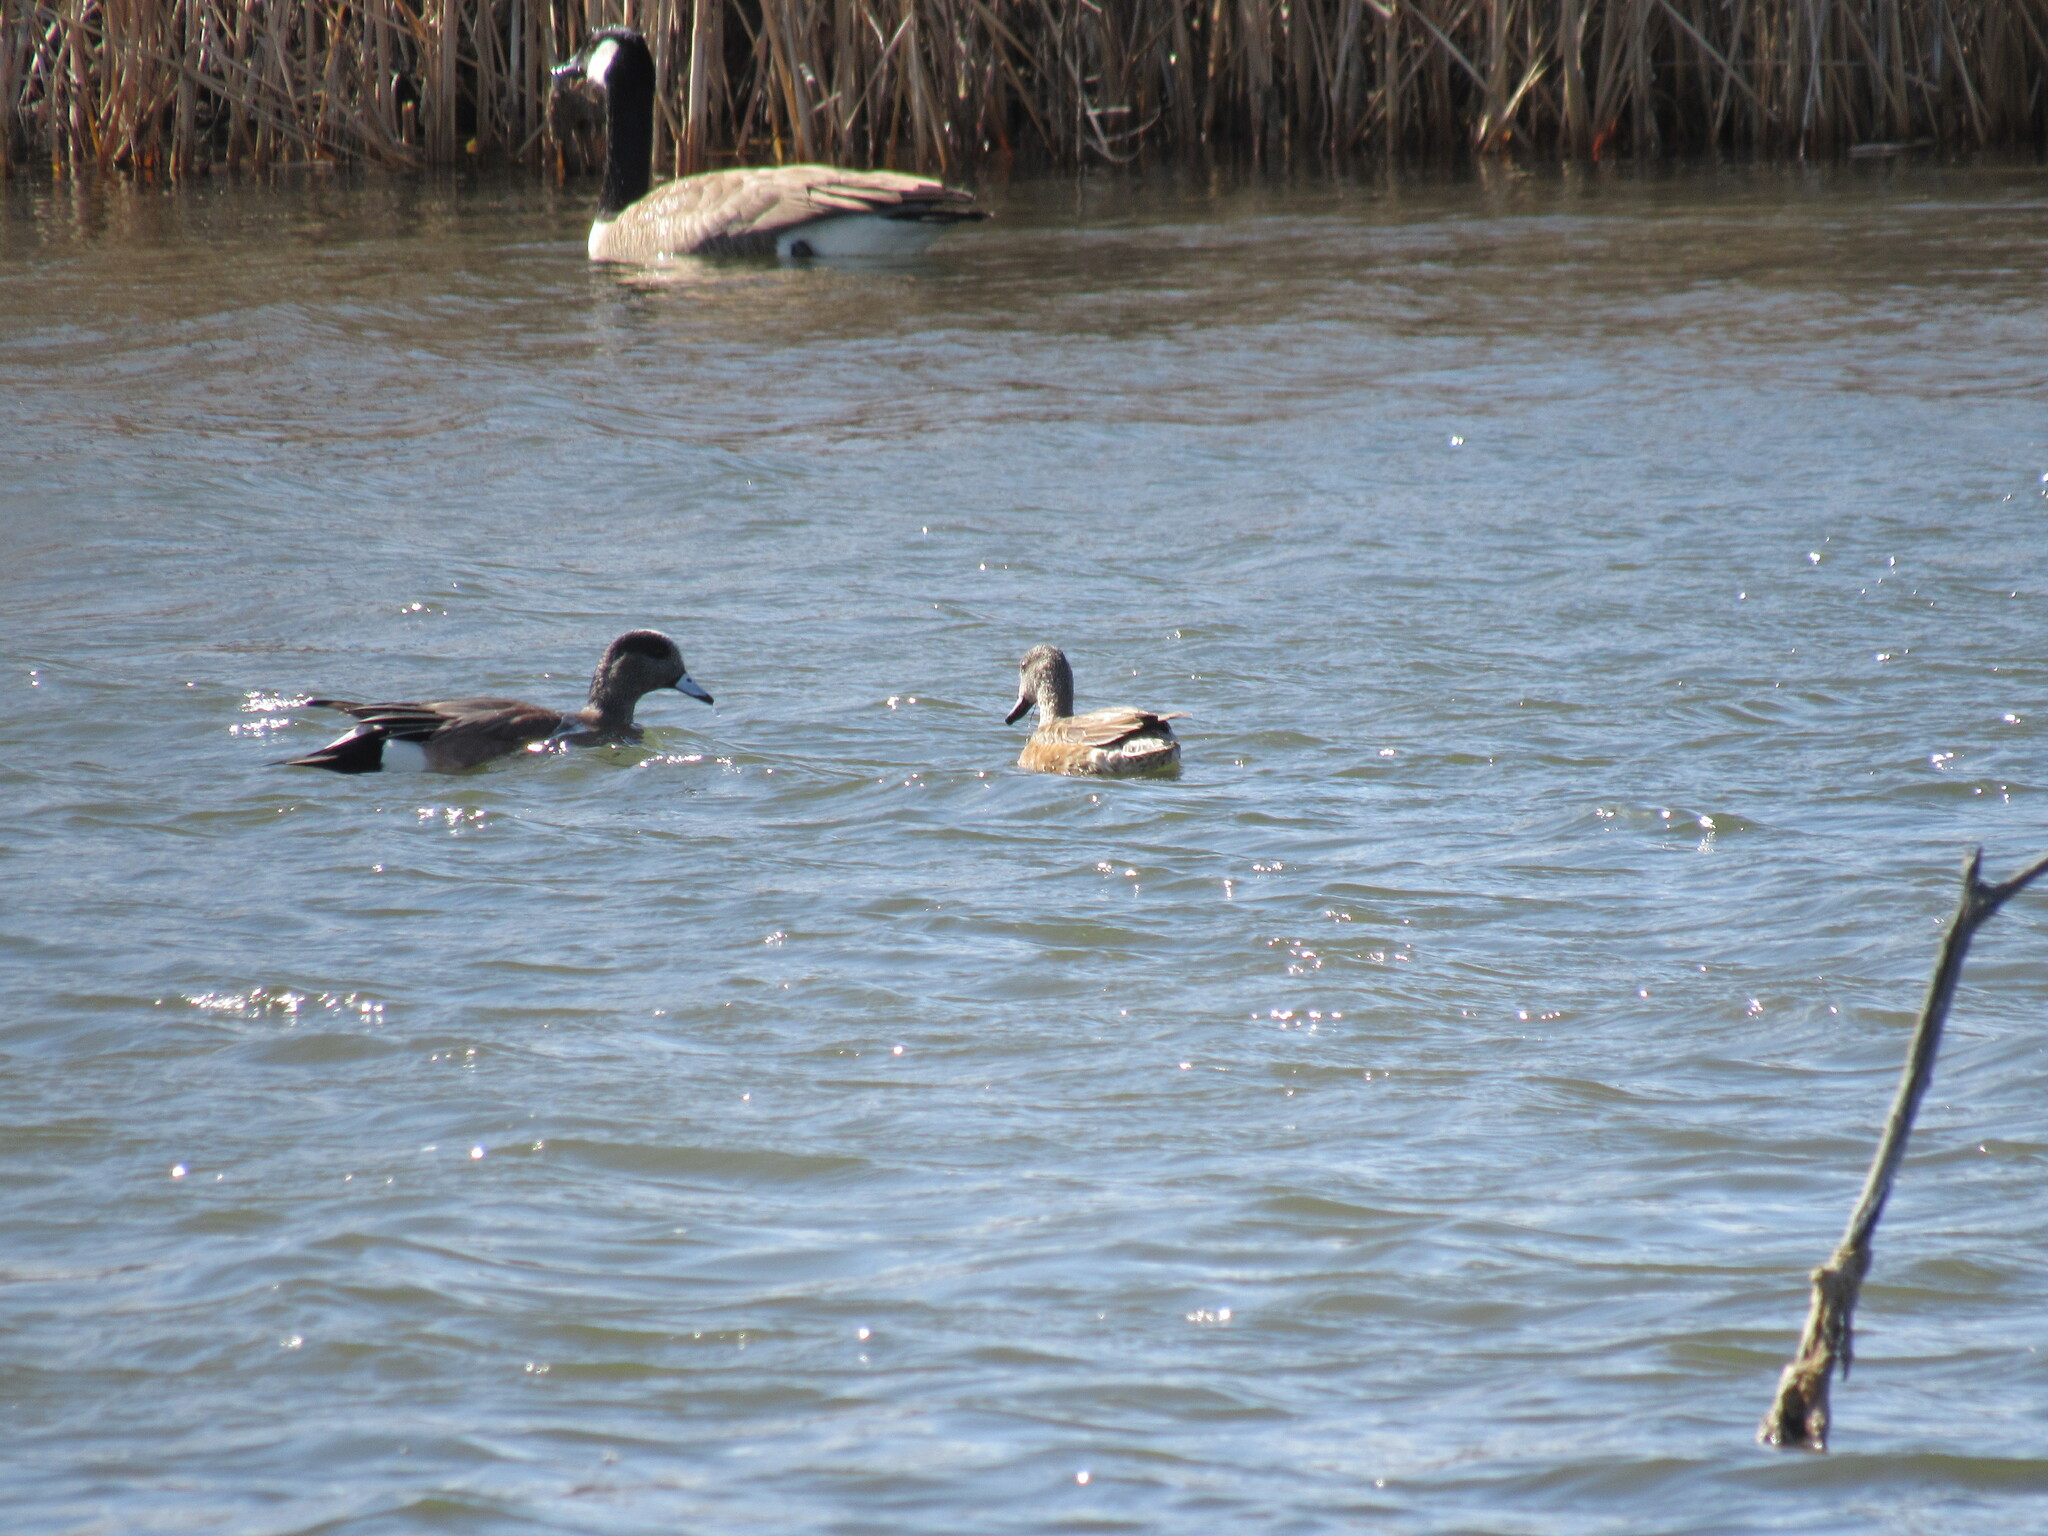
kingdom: Animalia
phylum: Chordata
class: Aves
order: Anseriformes
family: Anatidae
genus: Mareca
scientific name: Mareca americana
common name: American wigeon
